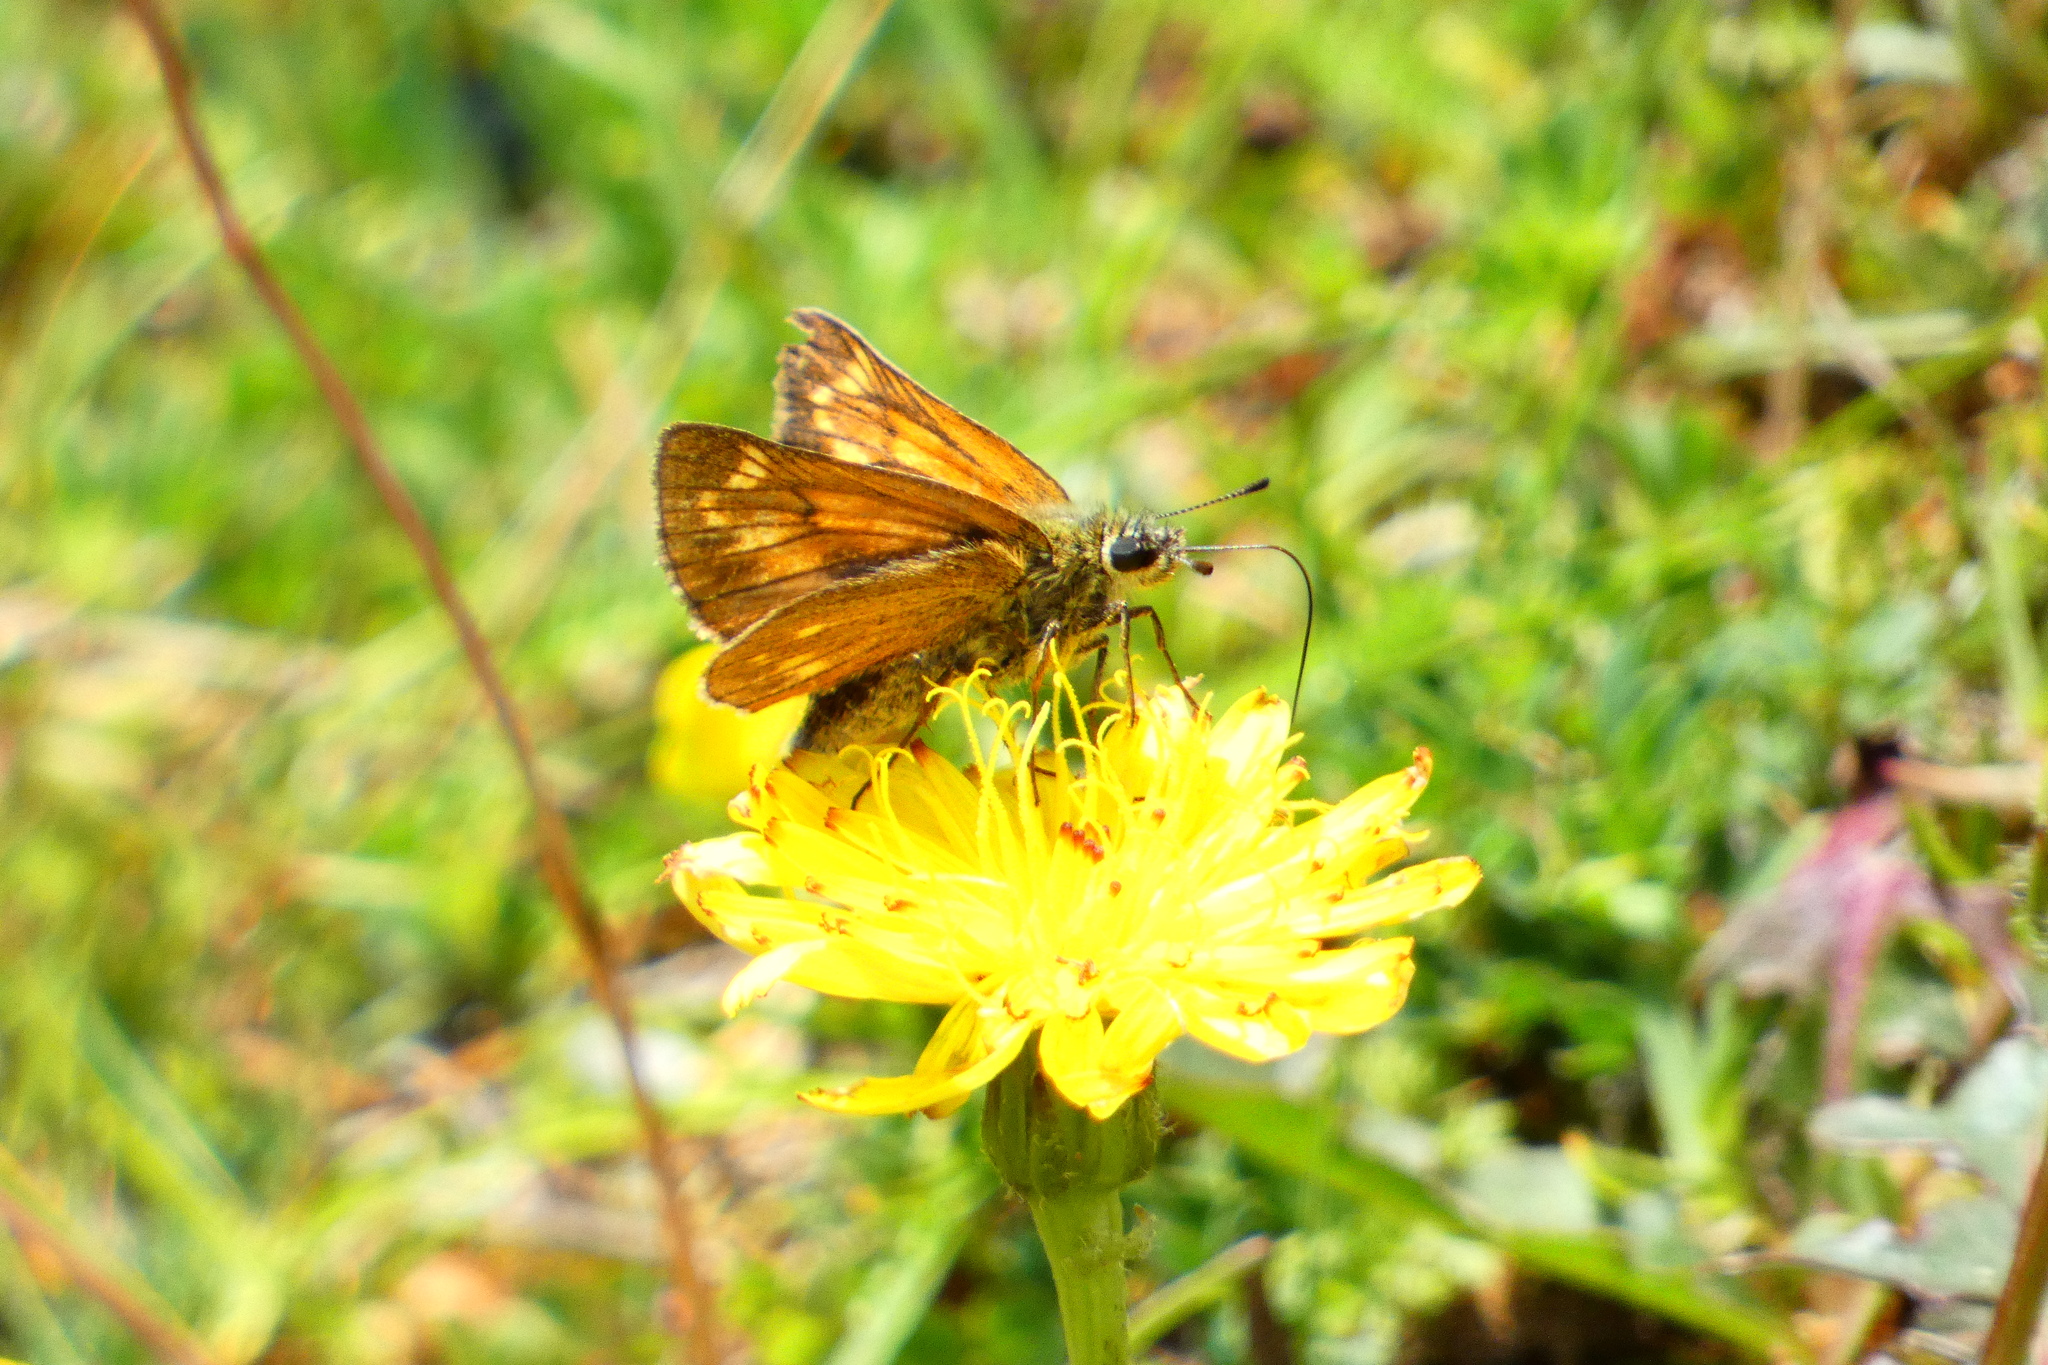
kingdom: Animalia
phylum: Arthropoda
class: Insecta
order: Lepidoptera
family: Hesperiidae
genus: Ochlodes
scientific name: Ochlodes venata
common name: Large skipper
